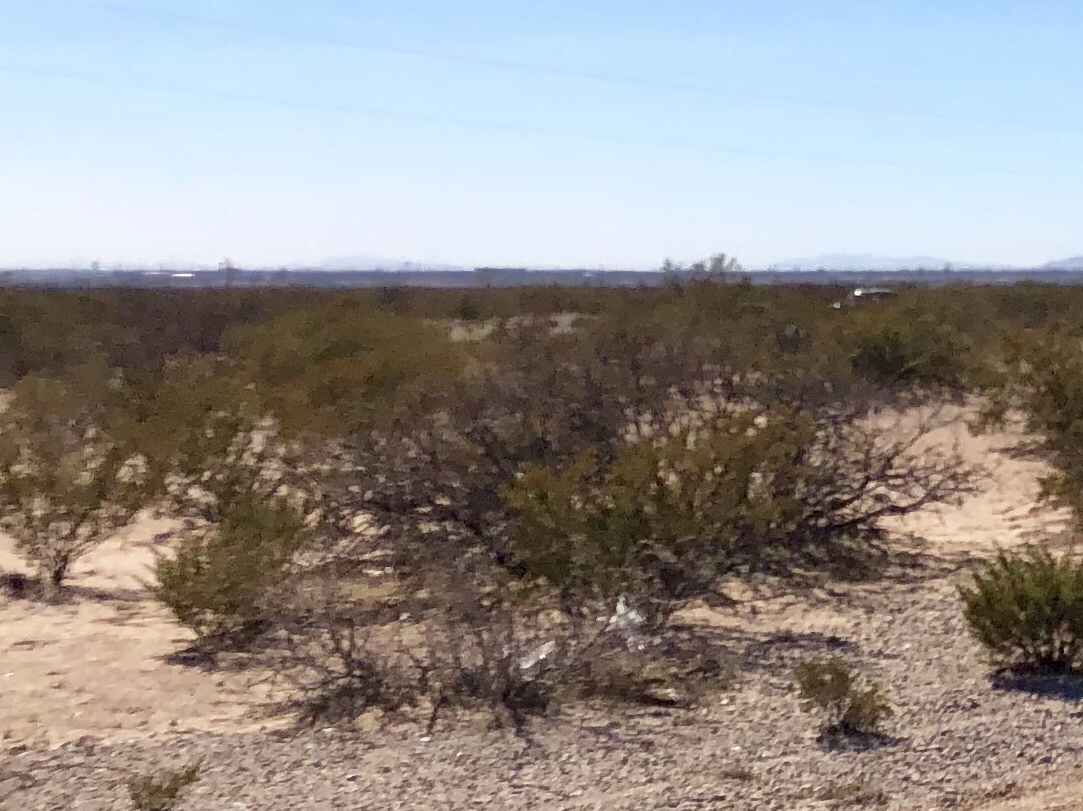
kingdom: Plantae
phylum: Tracheophyta
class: Magnoliopsida
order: Zygophyllales
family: Zygophyllaceae
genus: Larrea
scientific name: Larrea tridentata
